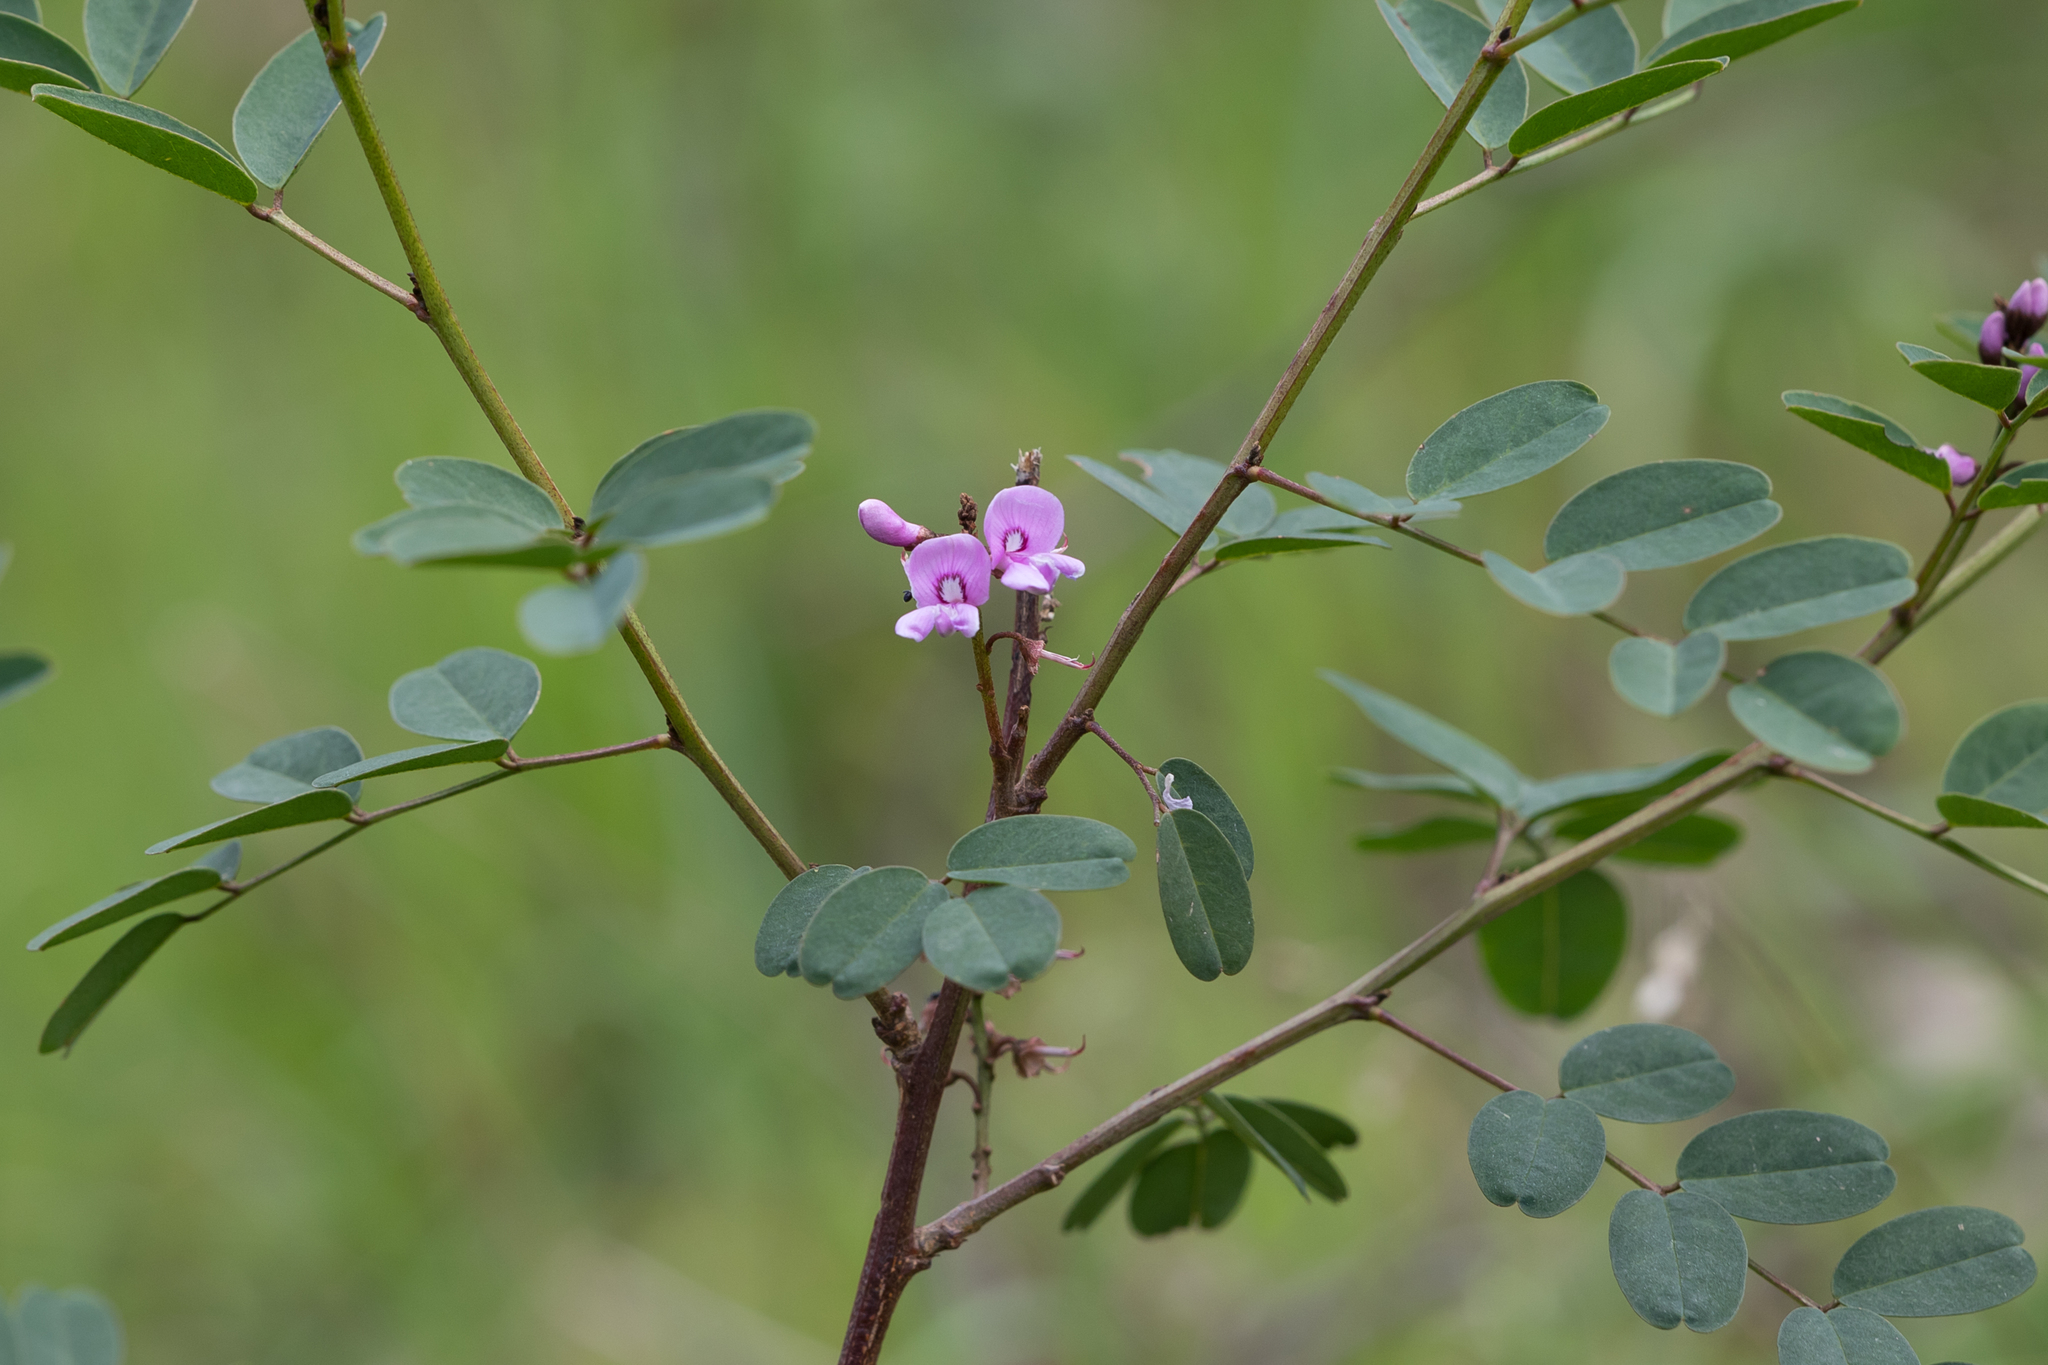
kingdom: Plantae
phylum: Tracheophyta
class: Magnoliopsida
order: Fabales
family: Fabaceae
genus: Indigofera
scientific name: Indigofera australis
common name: Australian indigo
